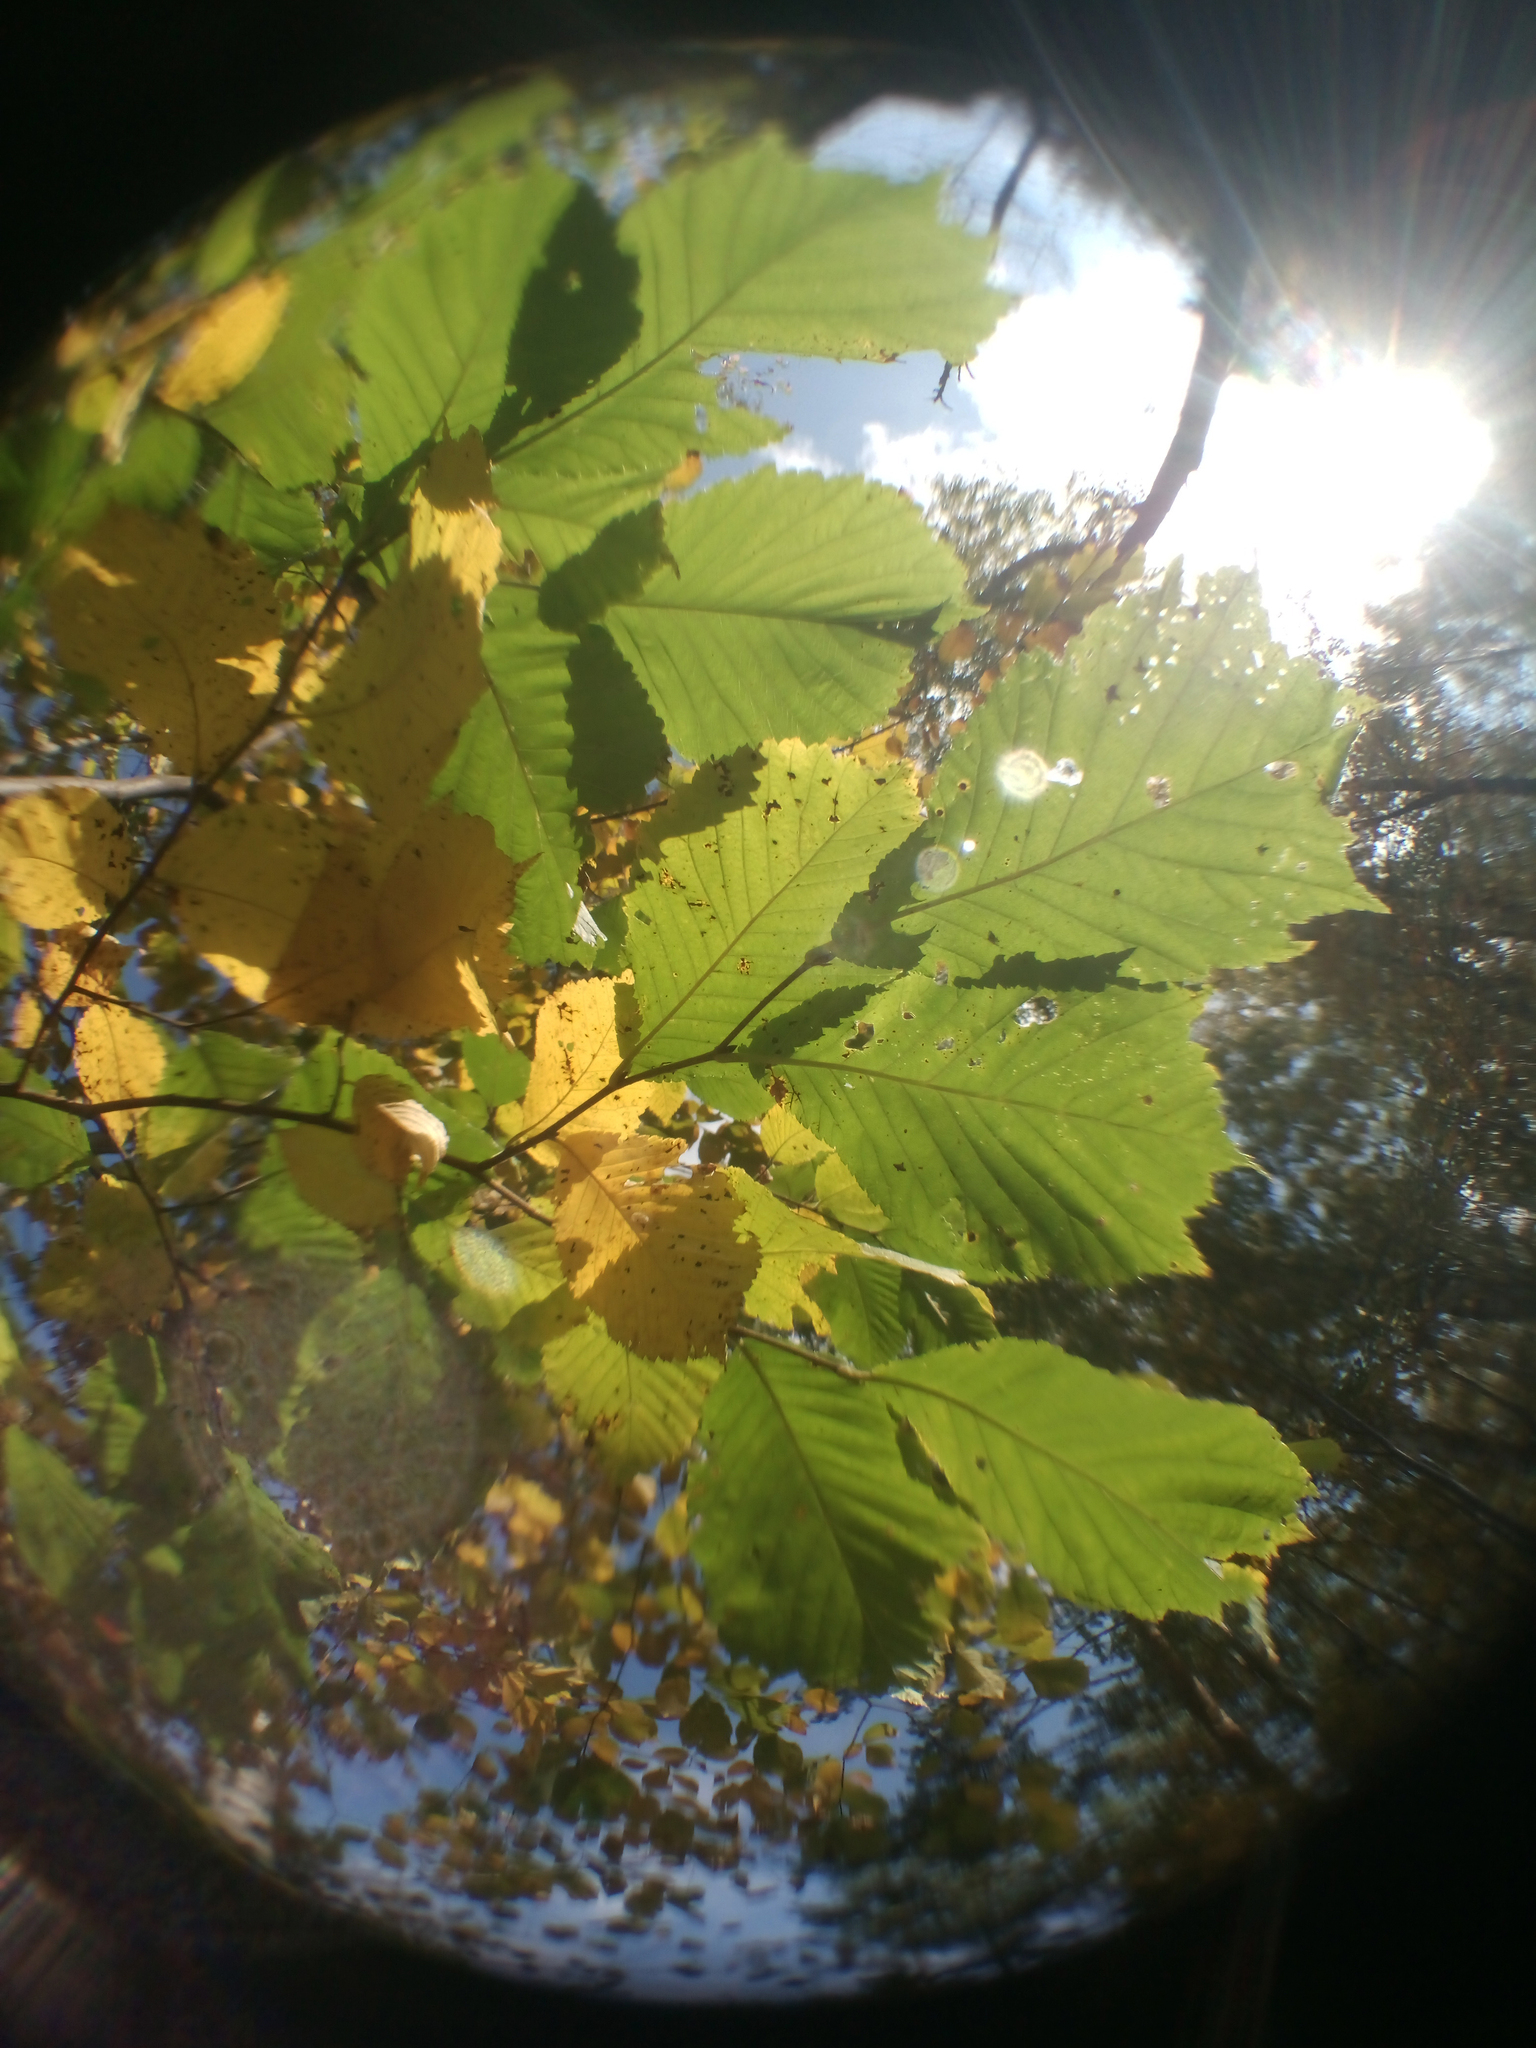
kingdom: Plantae
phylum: Tracheophyta
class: Magnoliopsida
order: Rosales
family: Ulmaceae
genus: Ulmus
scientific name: Ulmus glabra
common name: Wych elm
